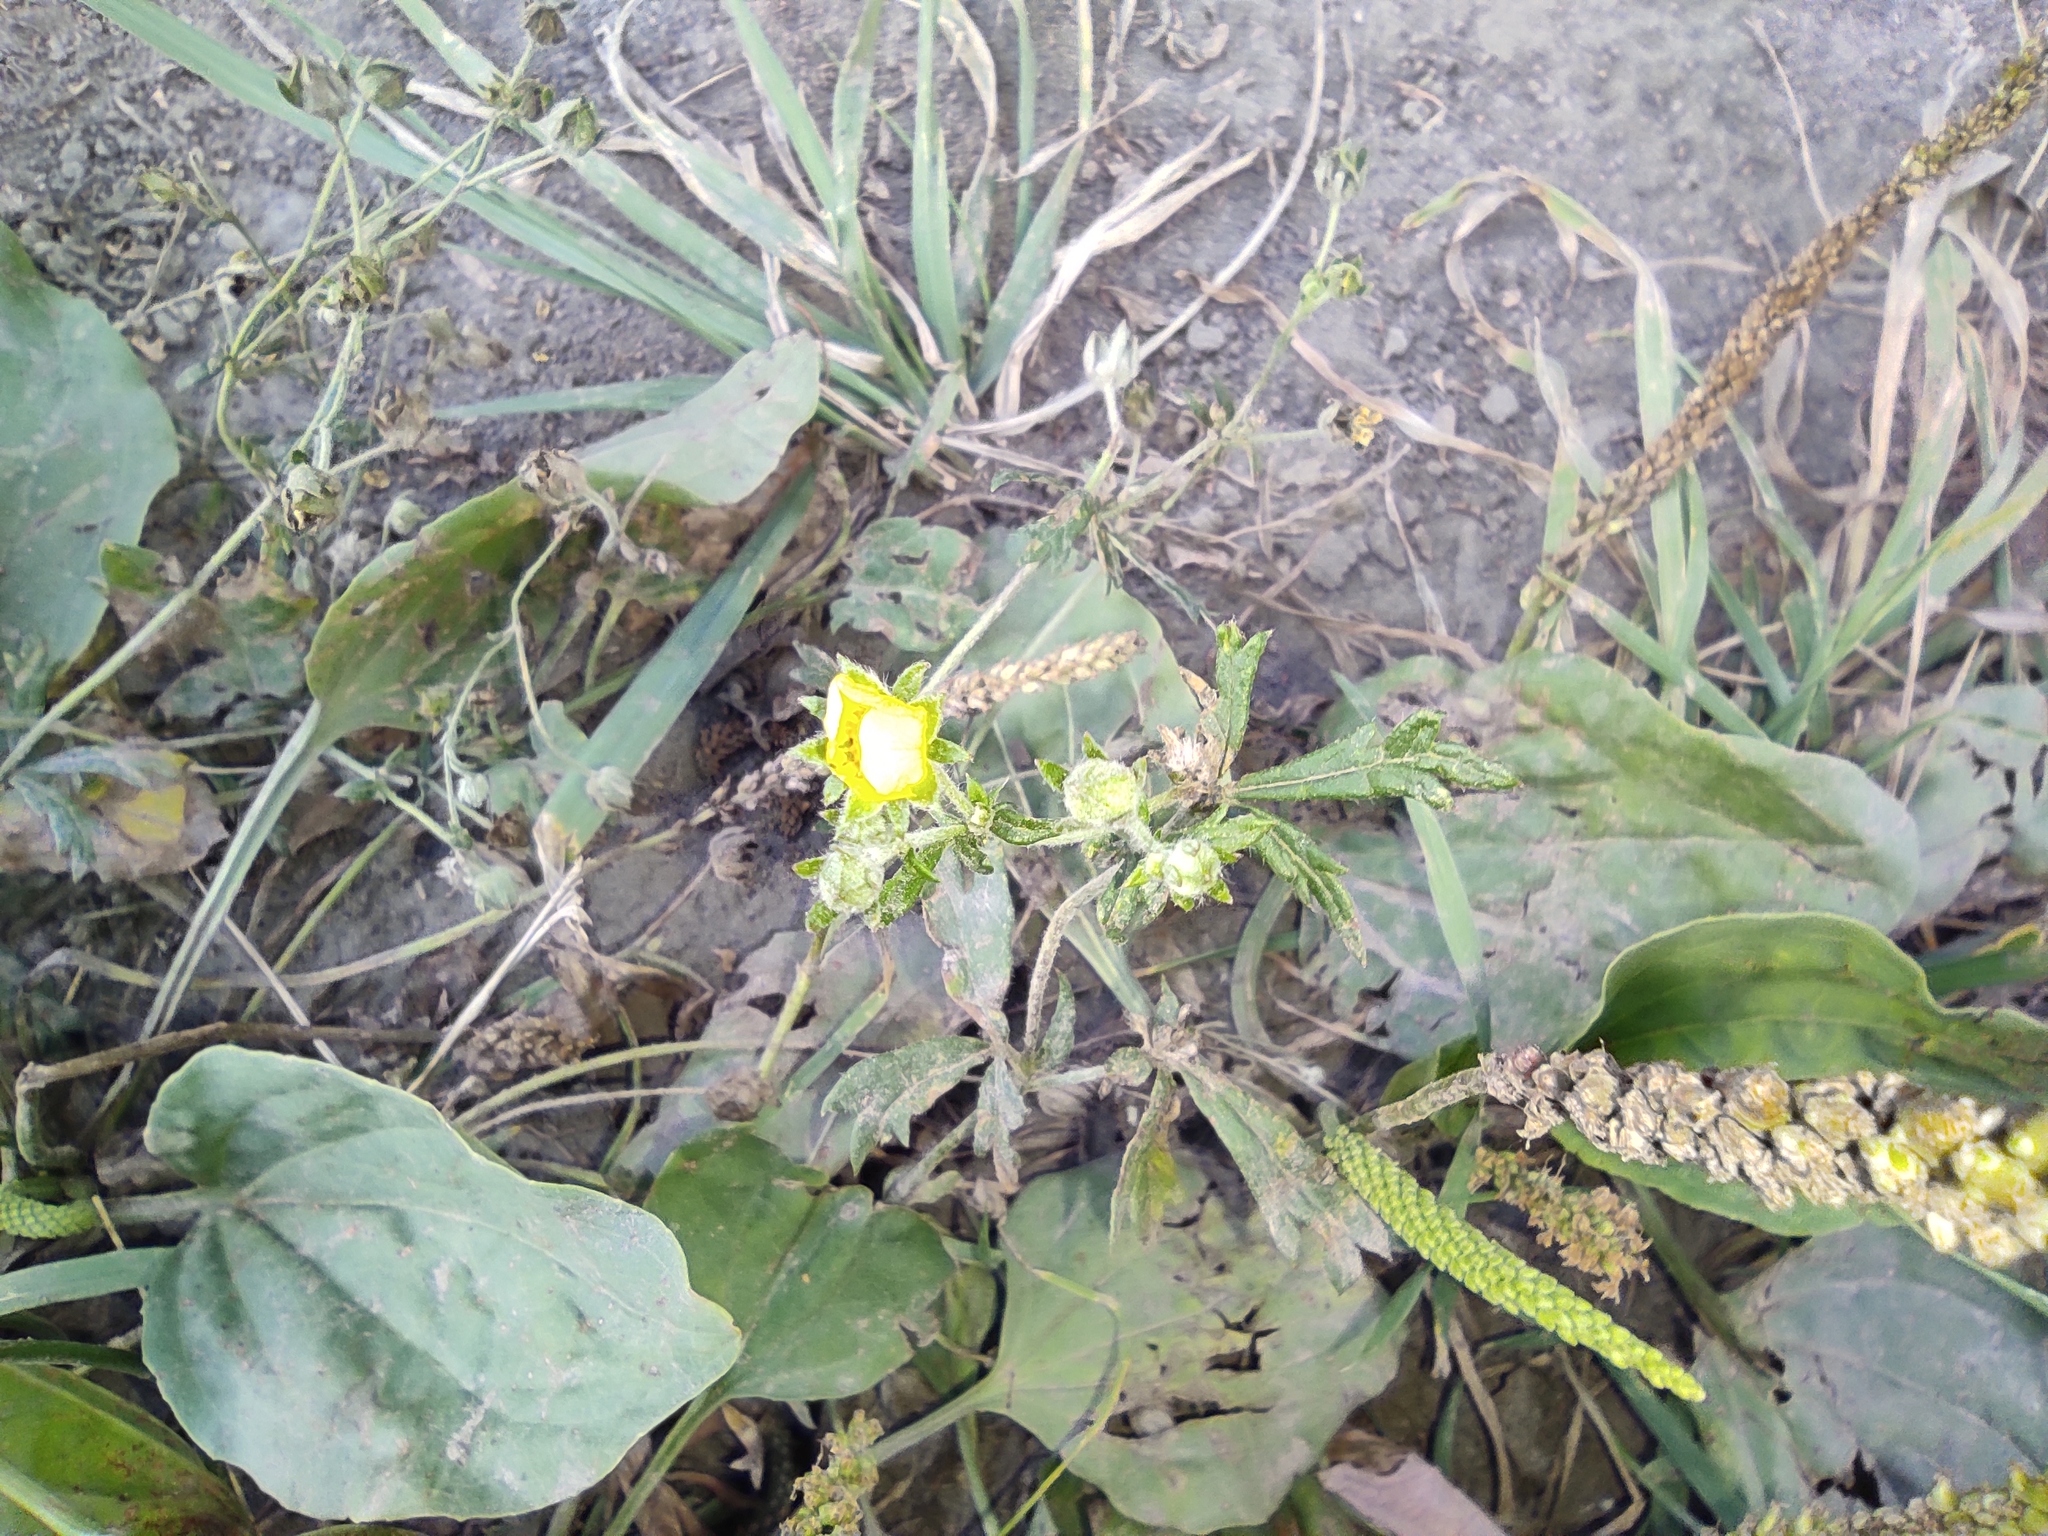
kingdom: Plantae
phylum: Tracheophyta
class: Magnoliopsida
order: Rosales
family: Rosaceae
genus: Potentilla
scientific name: Potentilla argentea
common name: Hoary cinquefoil
